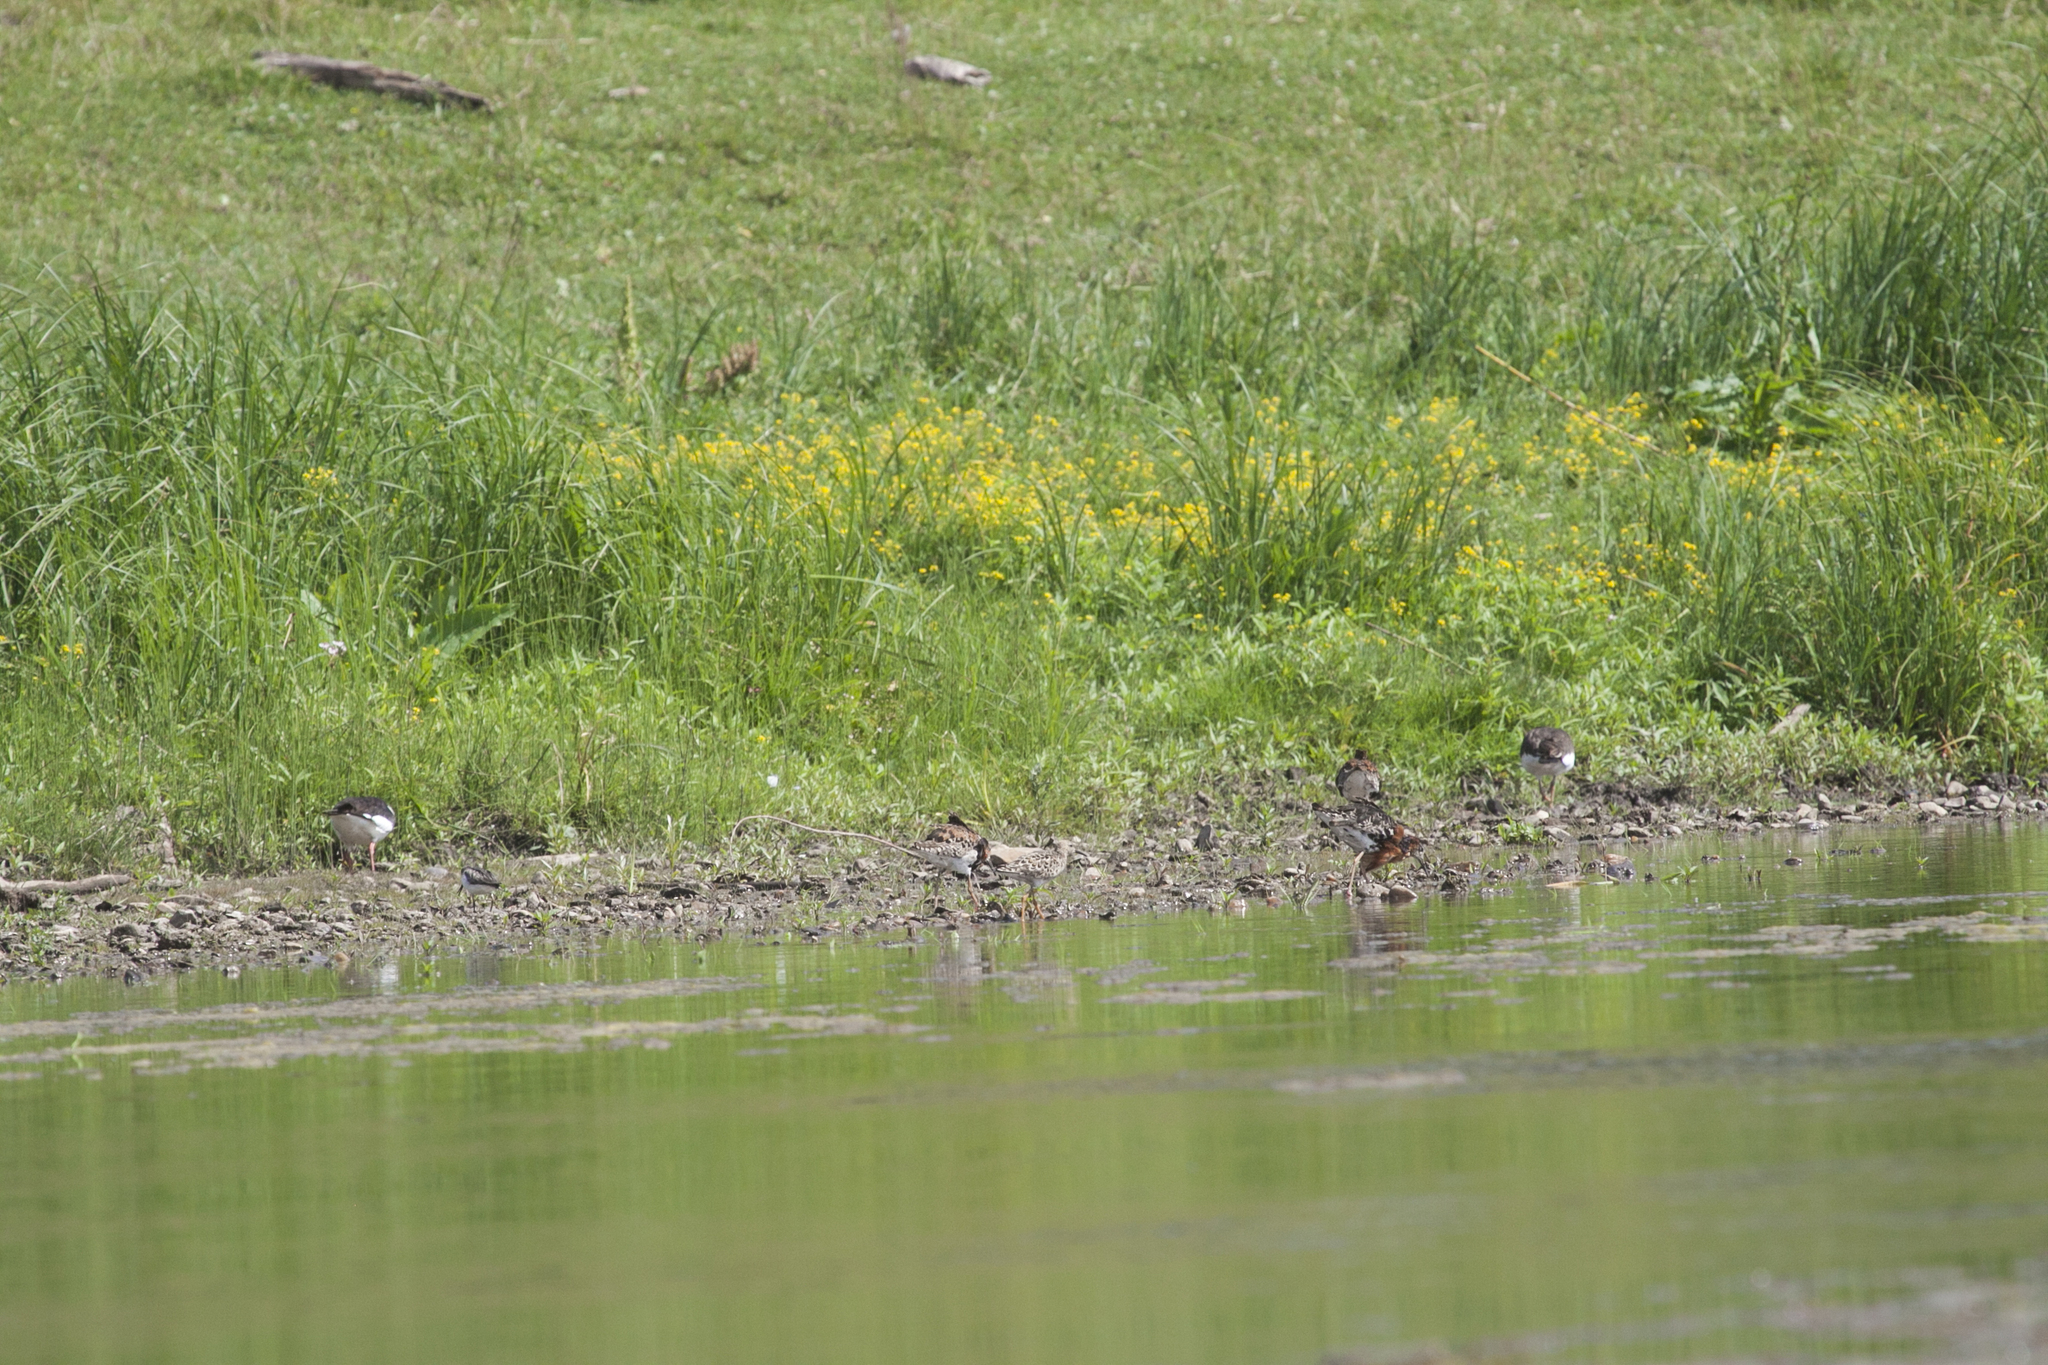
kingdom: Animalia
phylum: Chordata
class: Aves
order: Charadriiformes
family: Scolopacidae
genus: Calidris
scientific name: Calidris pugnax
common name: Ruff
